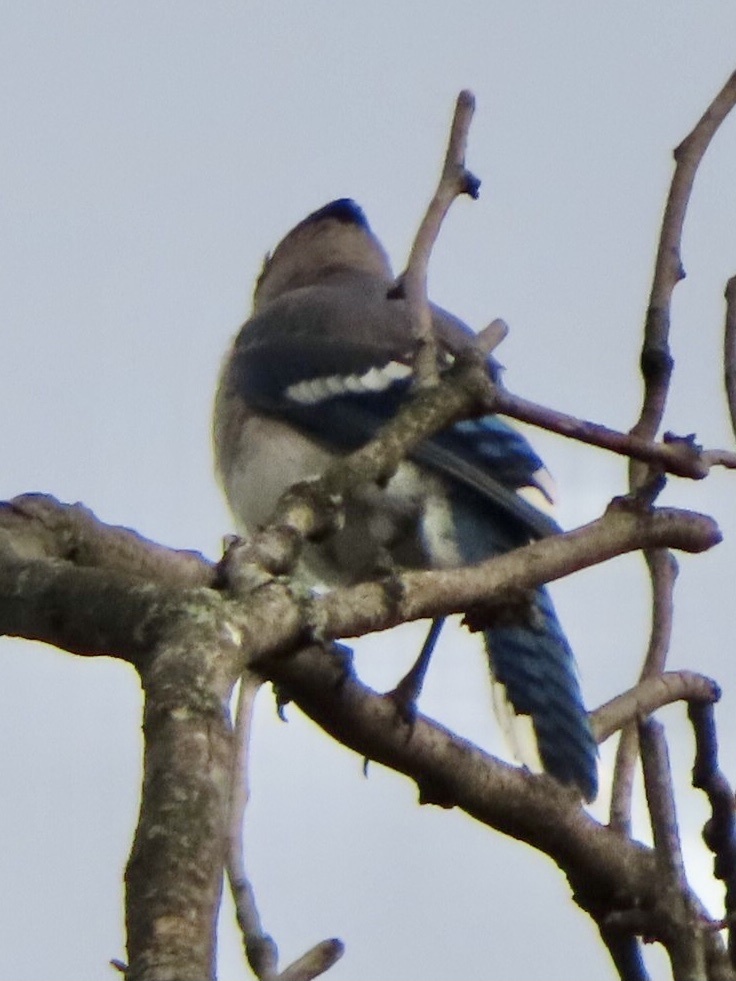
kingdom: Animalia
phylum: Chordata
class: Aves
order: Passeriformes
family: Corvidae
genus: Cyanocitta
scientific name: Cyanocitta cristata
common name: Blue jay
